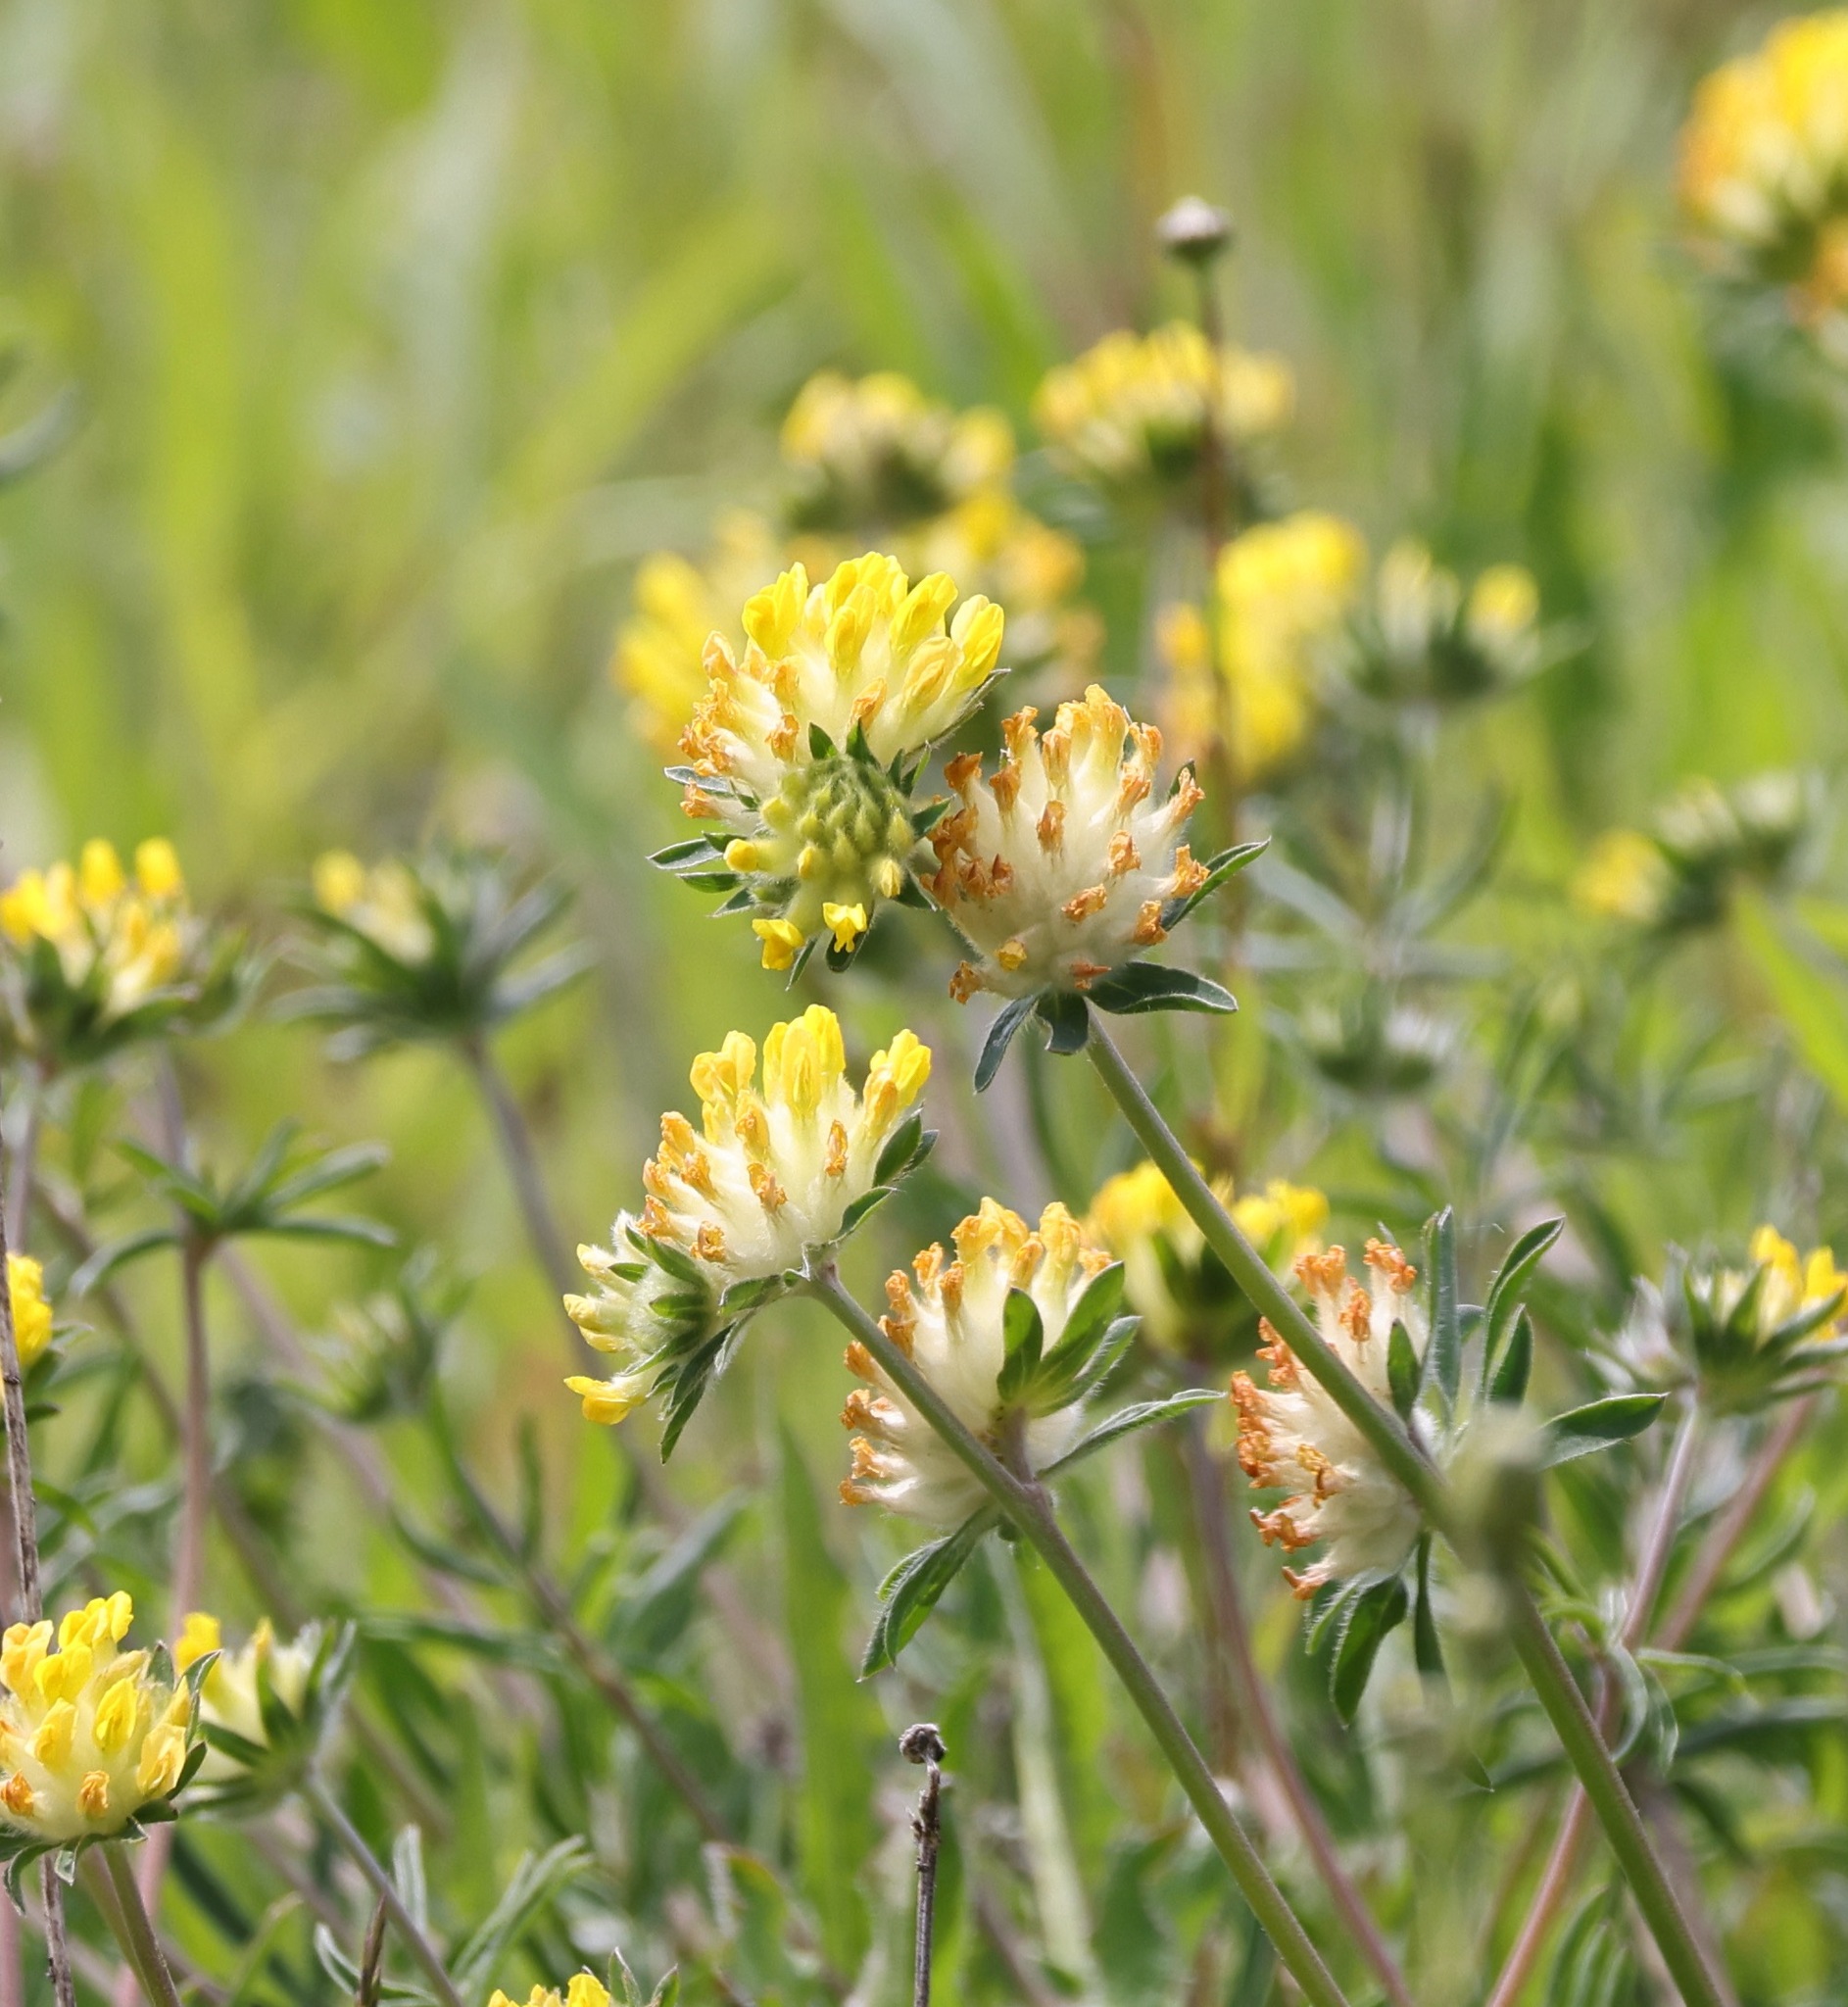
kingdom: Plantae
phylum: Tracheophyta
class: Magnoliopsida
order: Fabales
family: Fabaceae
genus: Anthyllis
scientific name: Anthyllis vulneraria
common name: Kidney vetch
